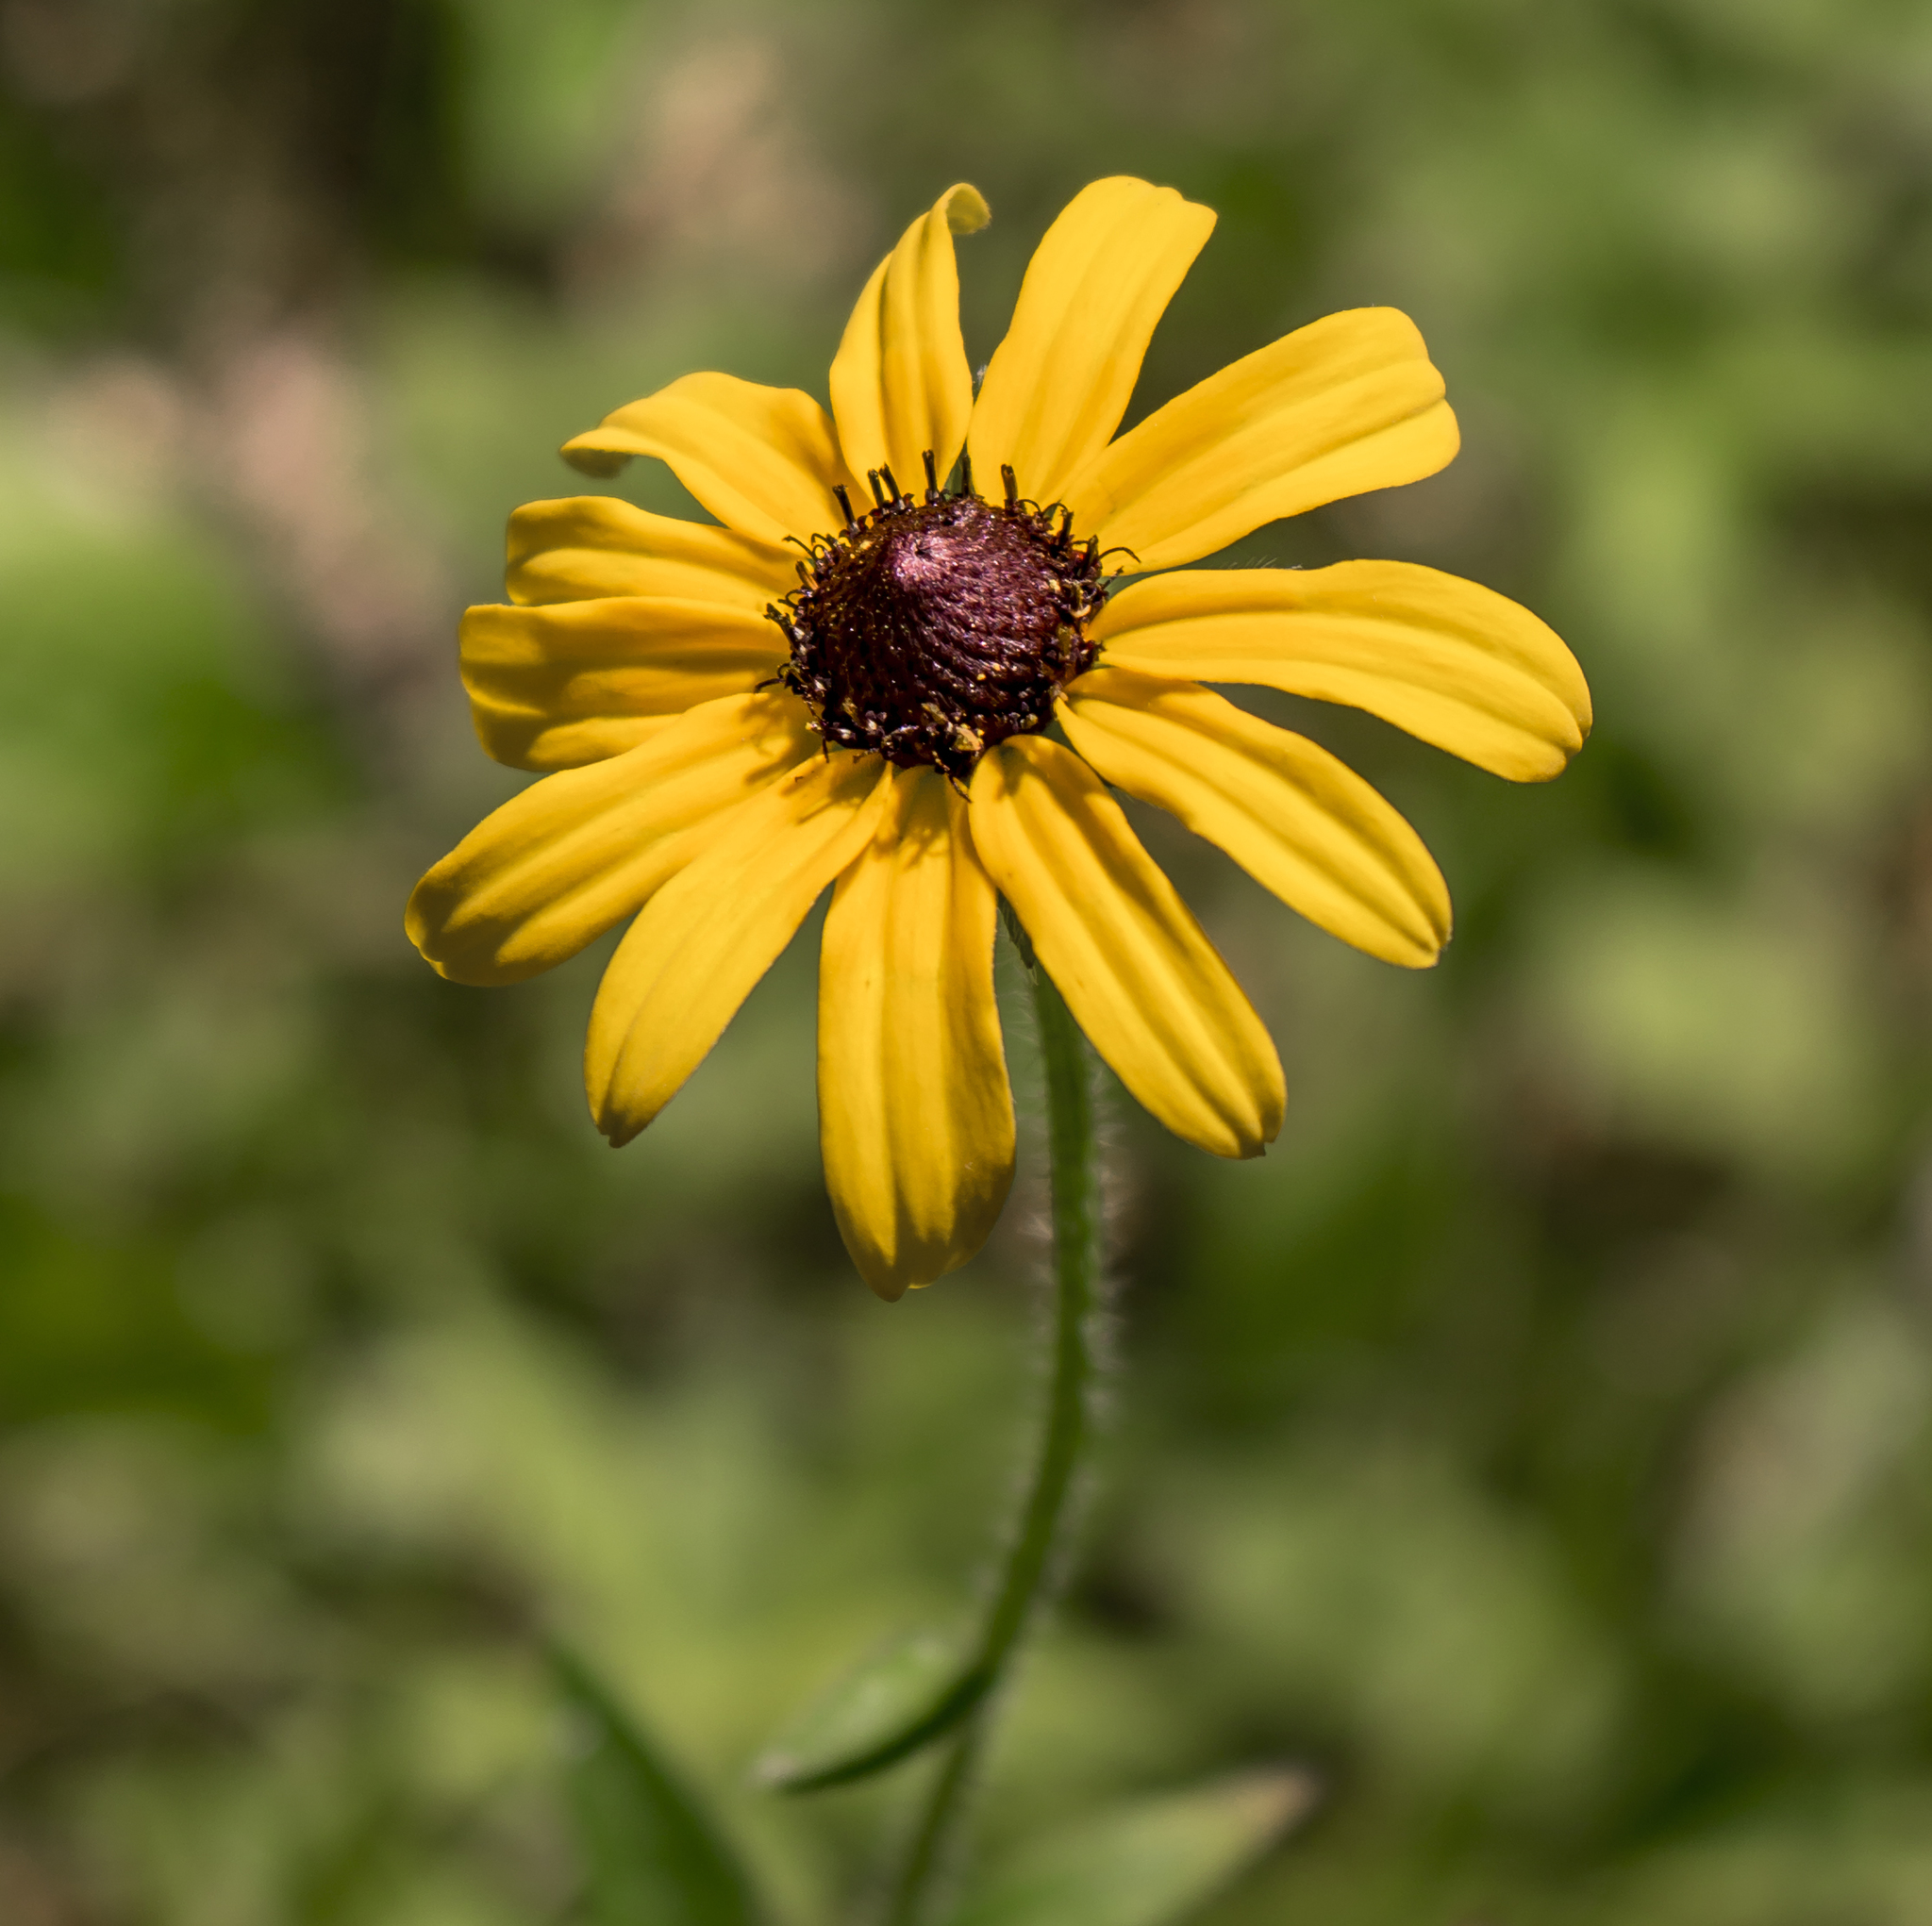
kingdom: Plantae
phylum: Tracheophyta
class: Magnoliopsida
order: Asterales
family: Asteraceae
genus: Rudbeckia
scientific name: Rudbeckia hirta
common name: Black-eyed-susan
